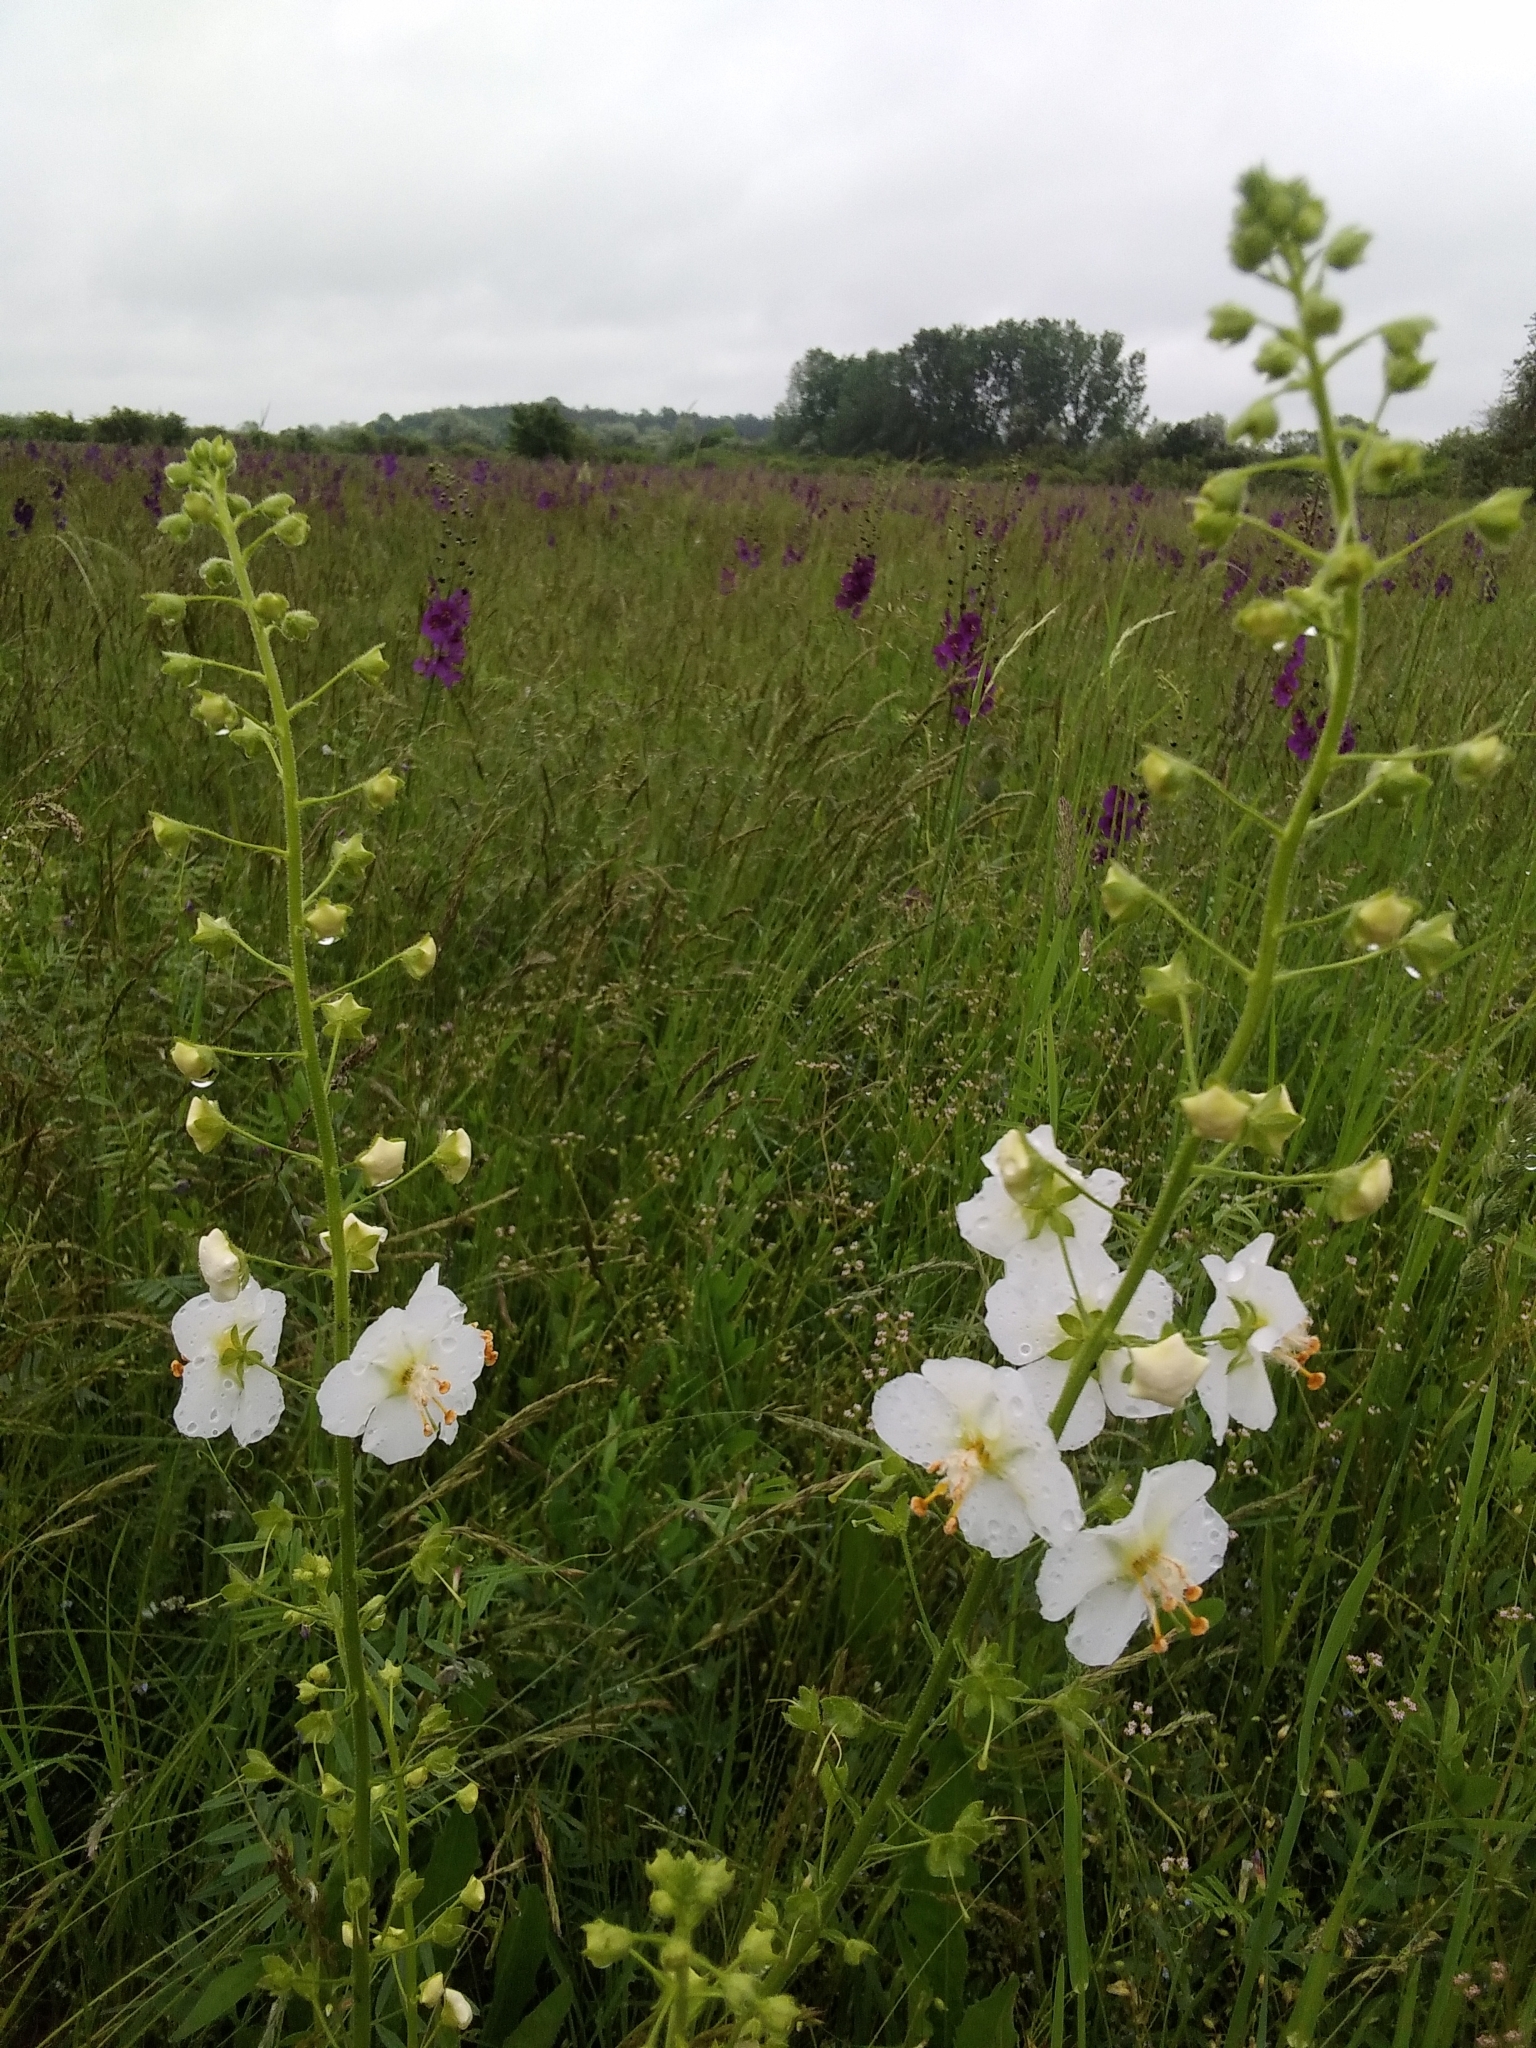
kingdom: Plantae
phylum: Tracheophyta
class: Magnoliopsida
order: Lamiales
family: Scrophulariaceae
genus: Verbascum
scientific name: Verbascum phoeniceum
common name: Purple mullein
